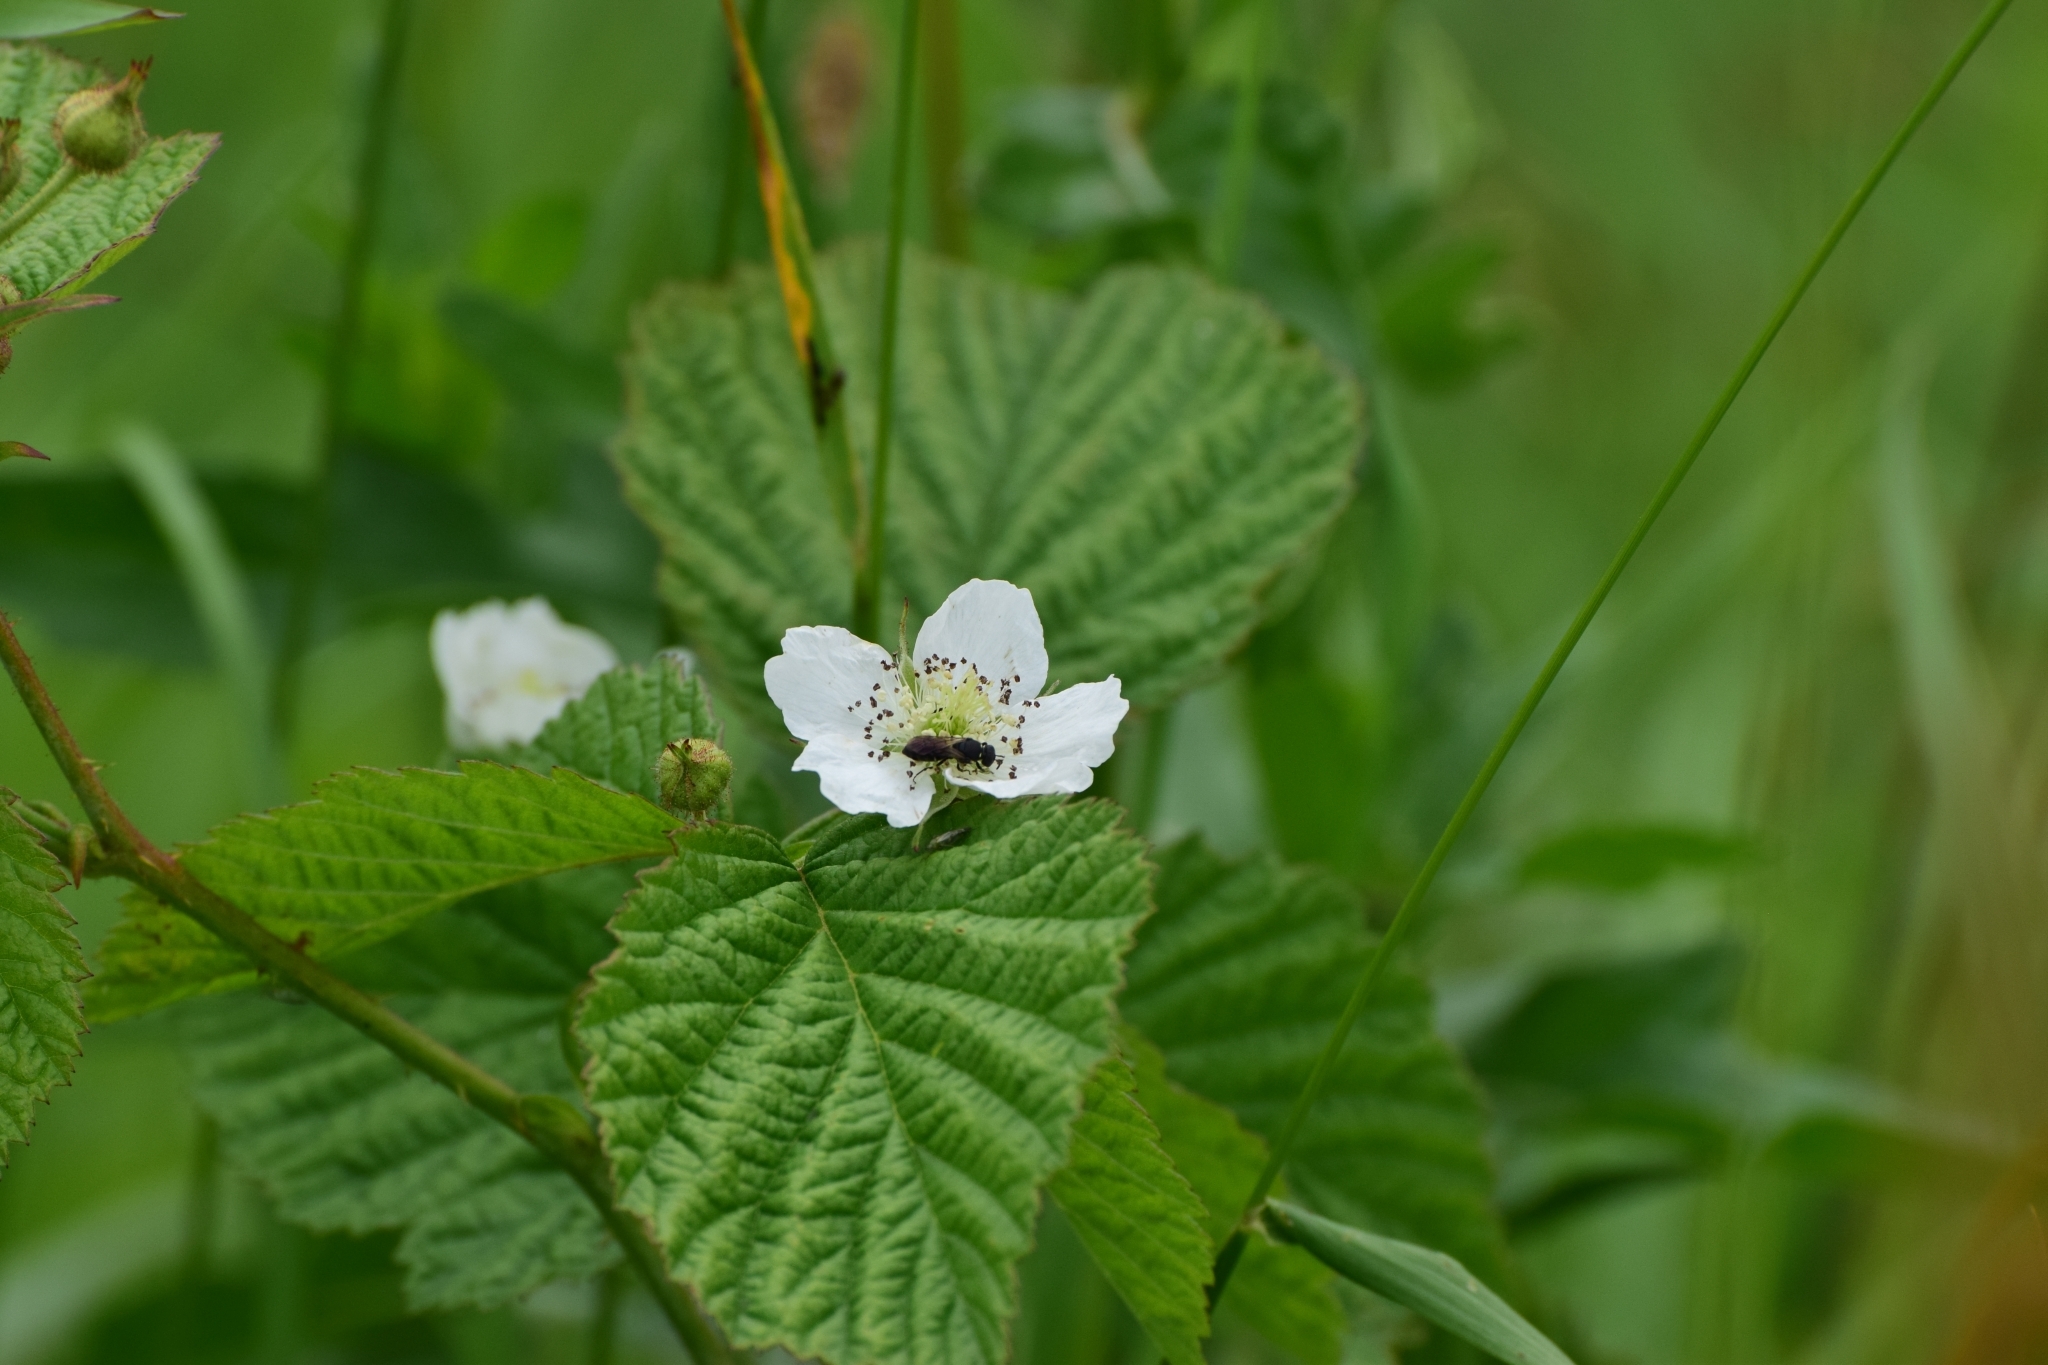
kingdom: Plantae
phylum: Tracheophyta
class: Magnoliopsida
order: Rosales
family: Rosaceae
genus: Rubus
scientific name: Rubus caesius
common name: Dewberry
